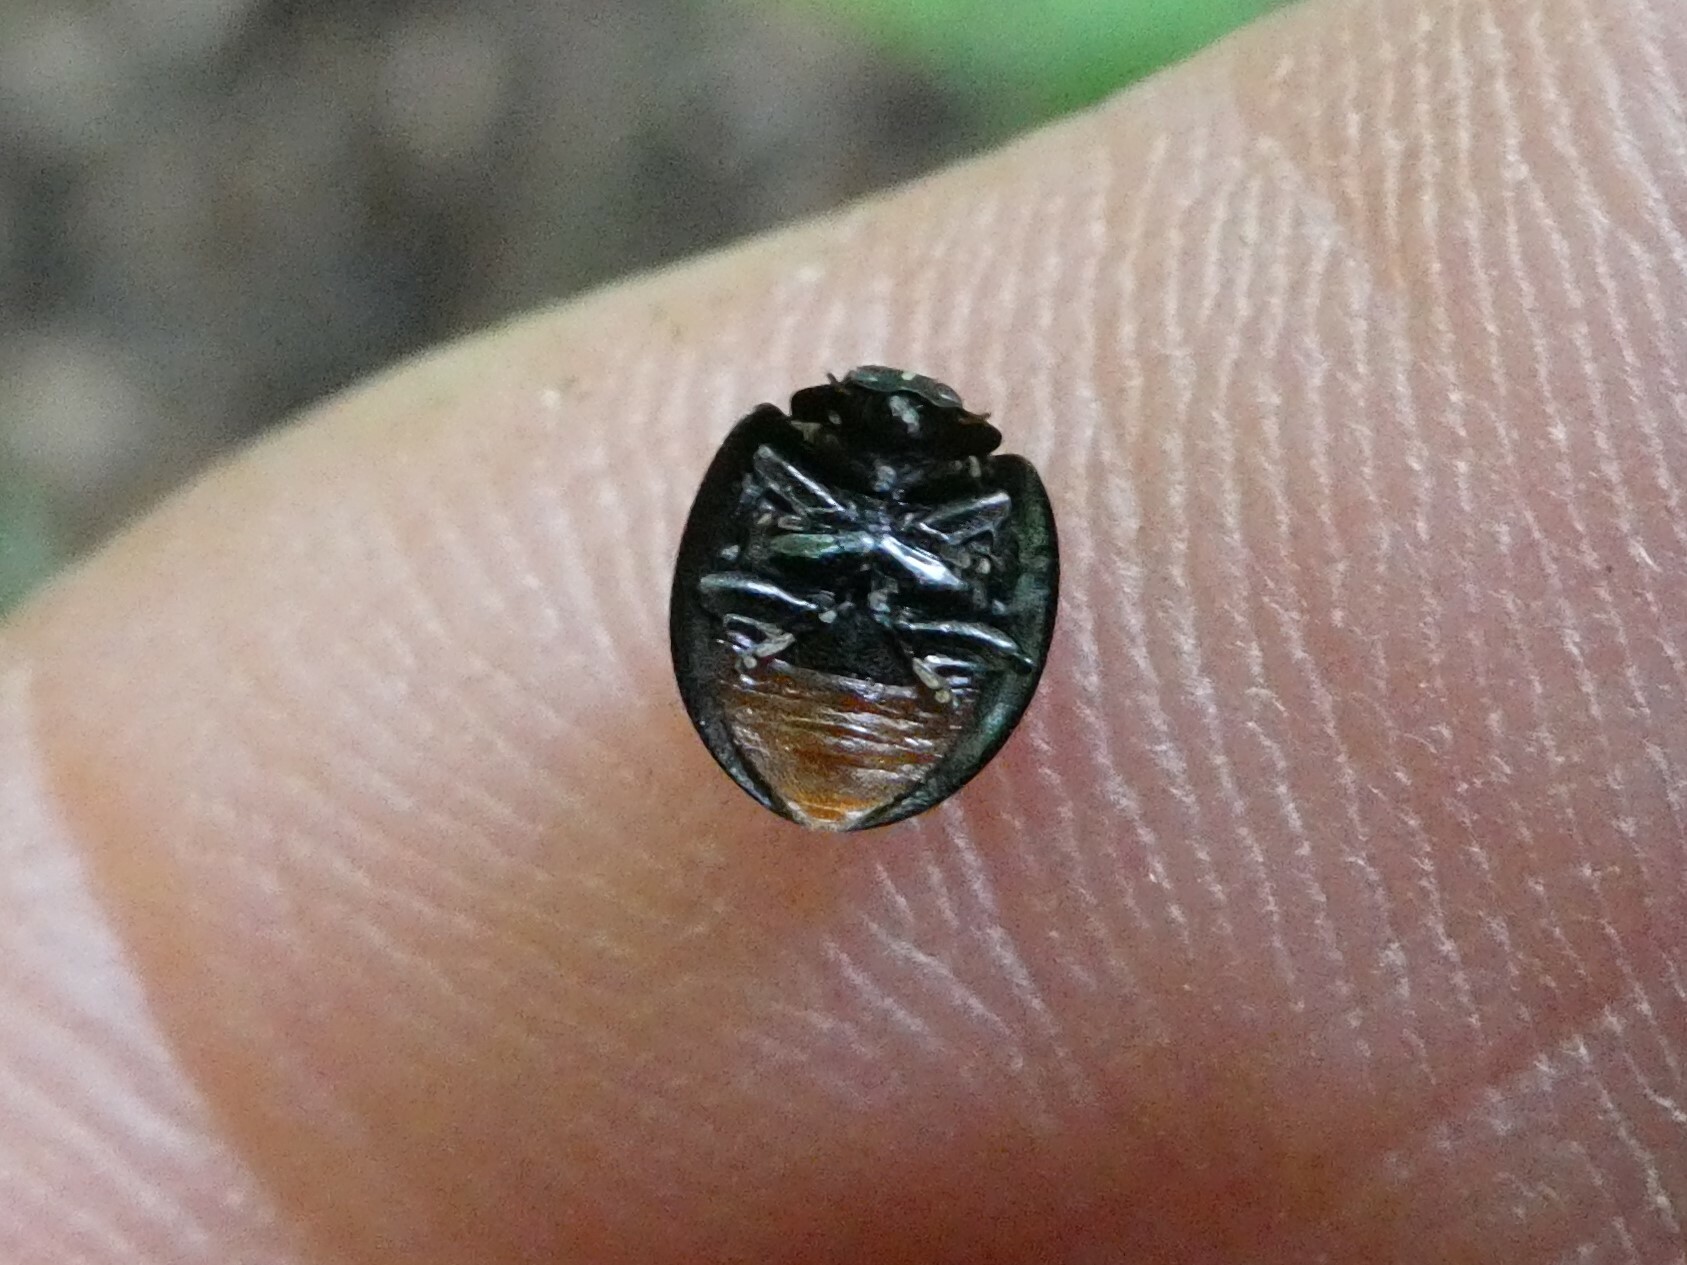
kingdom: Animalia
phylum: Arthropoda
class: Insecta
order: Coleoptera
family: Coccinellidae
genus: Chilocorus
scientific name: Chilocorus stigma
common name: Twicestabbed lady beetle
